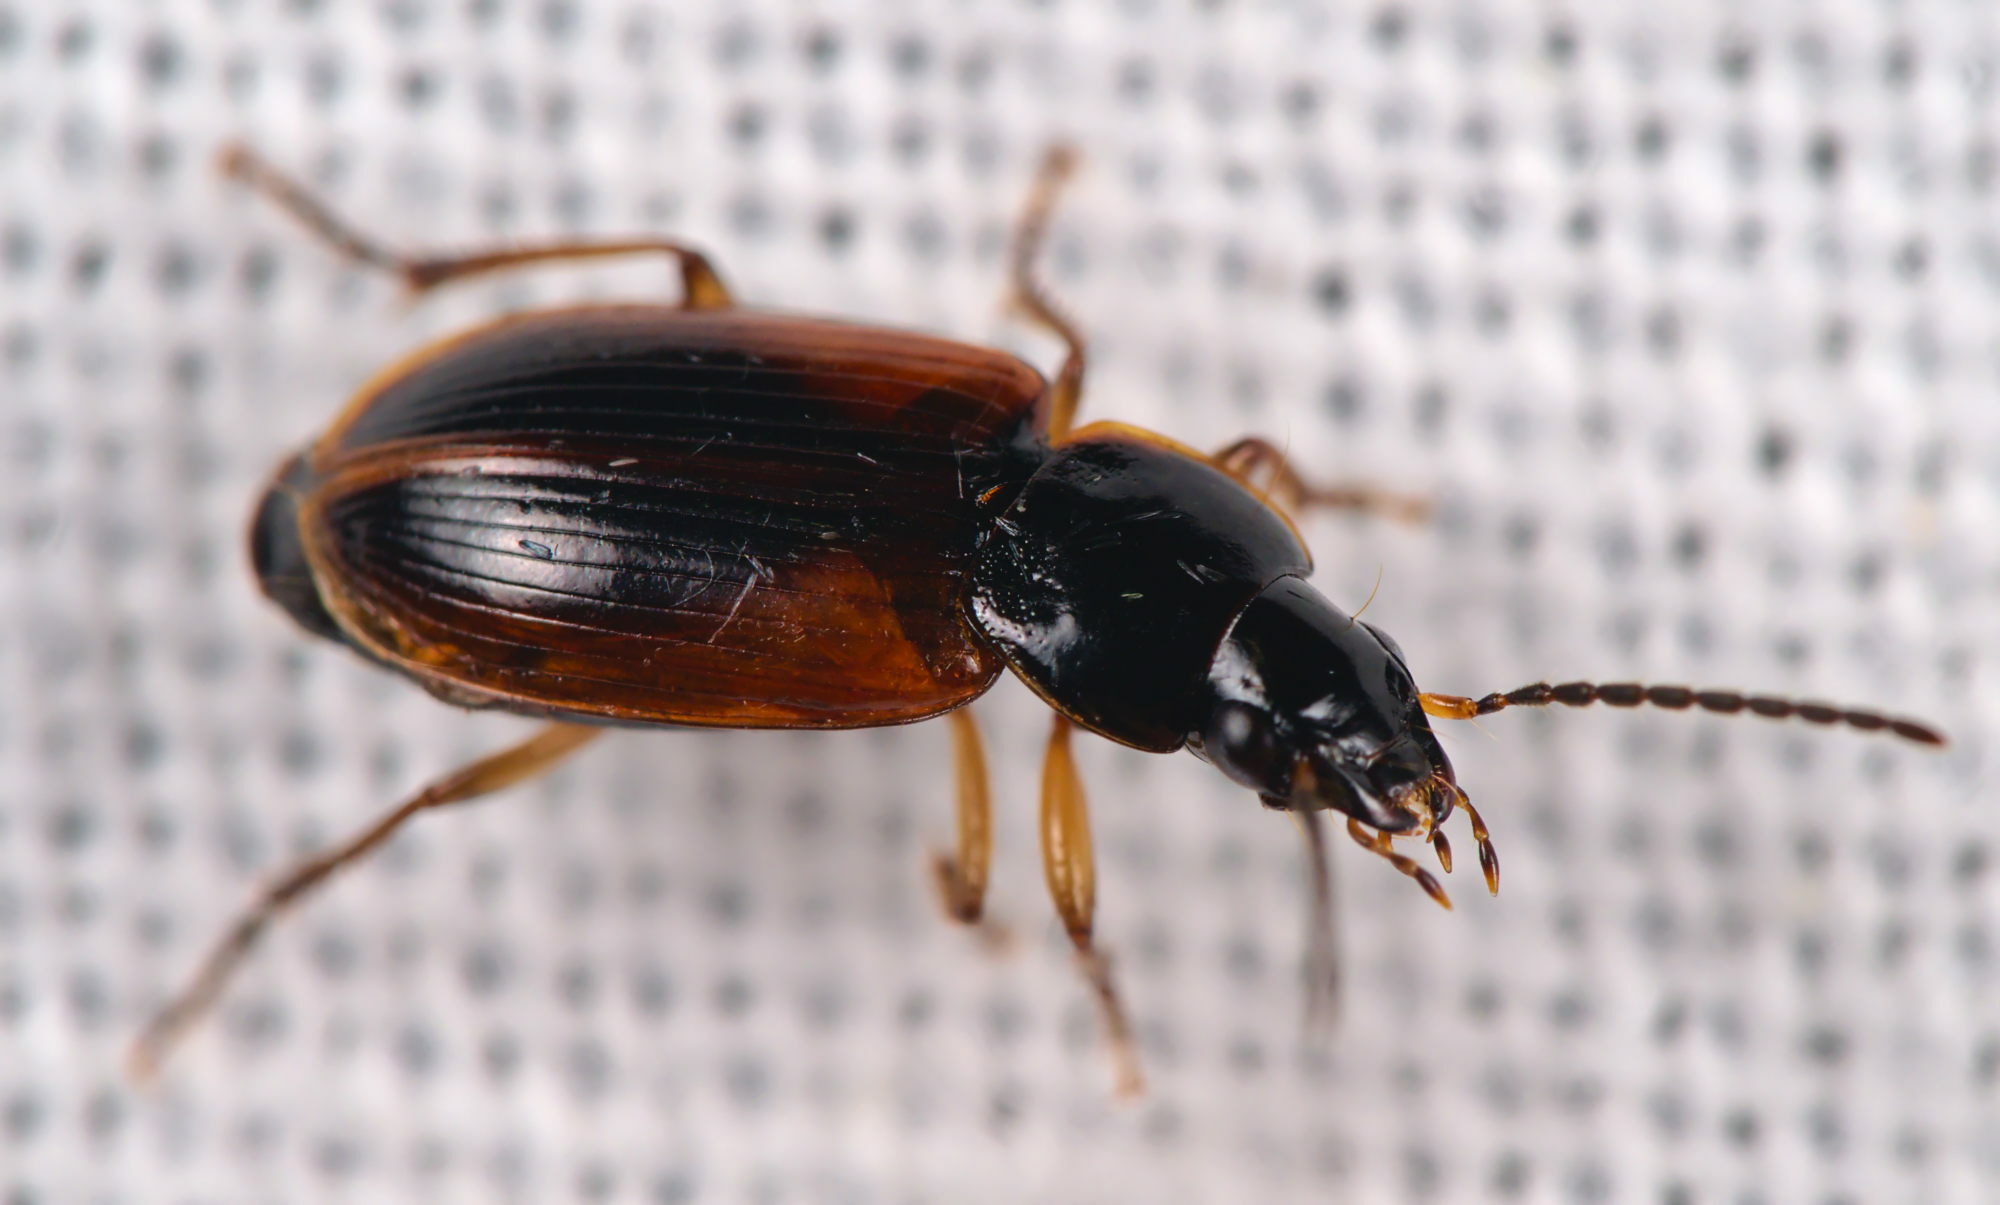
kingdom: Animalia
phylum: Arthropoda
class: Insecta
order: Coleoptera
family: Carabidae
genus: Stenolophus
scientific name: Stenolophus mixtus
